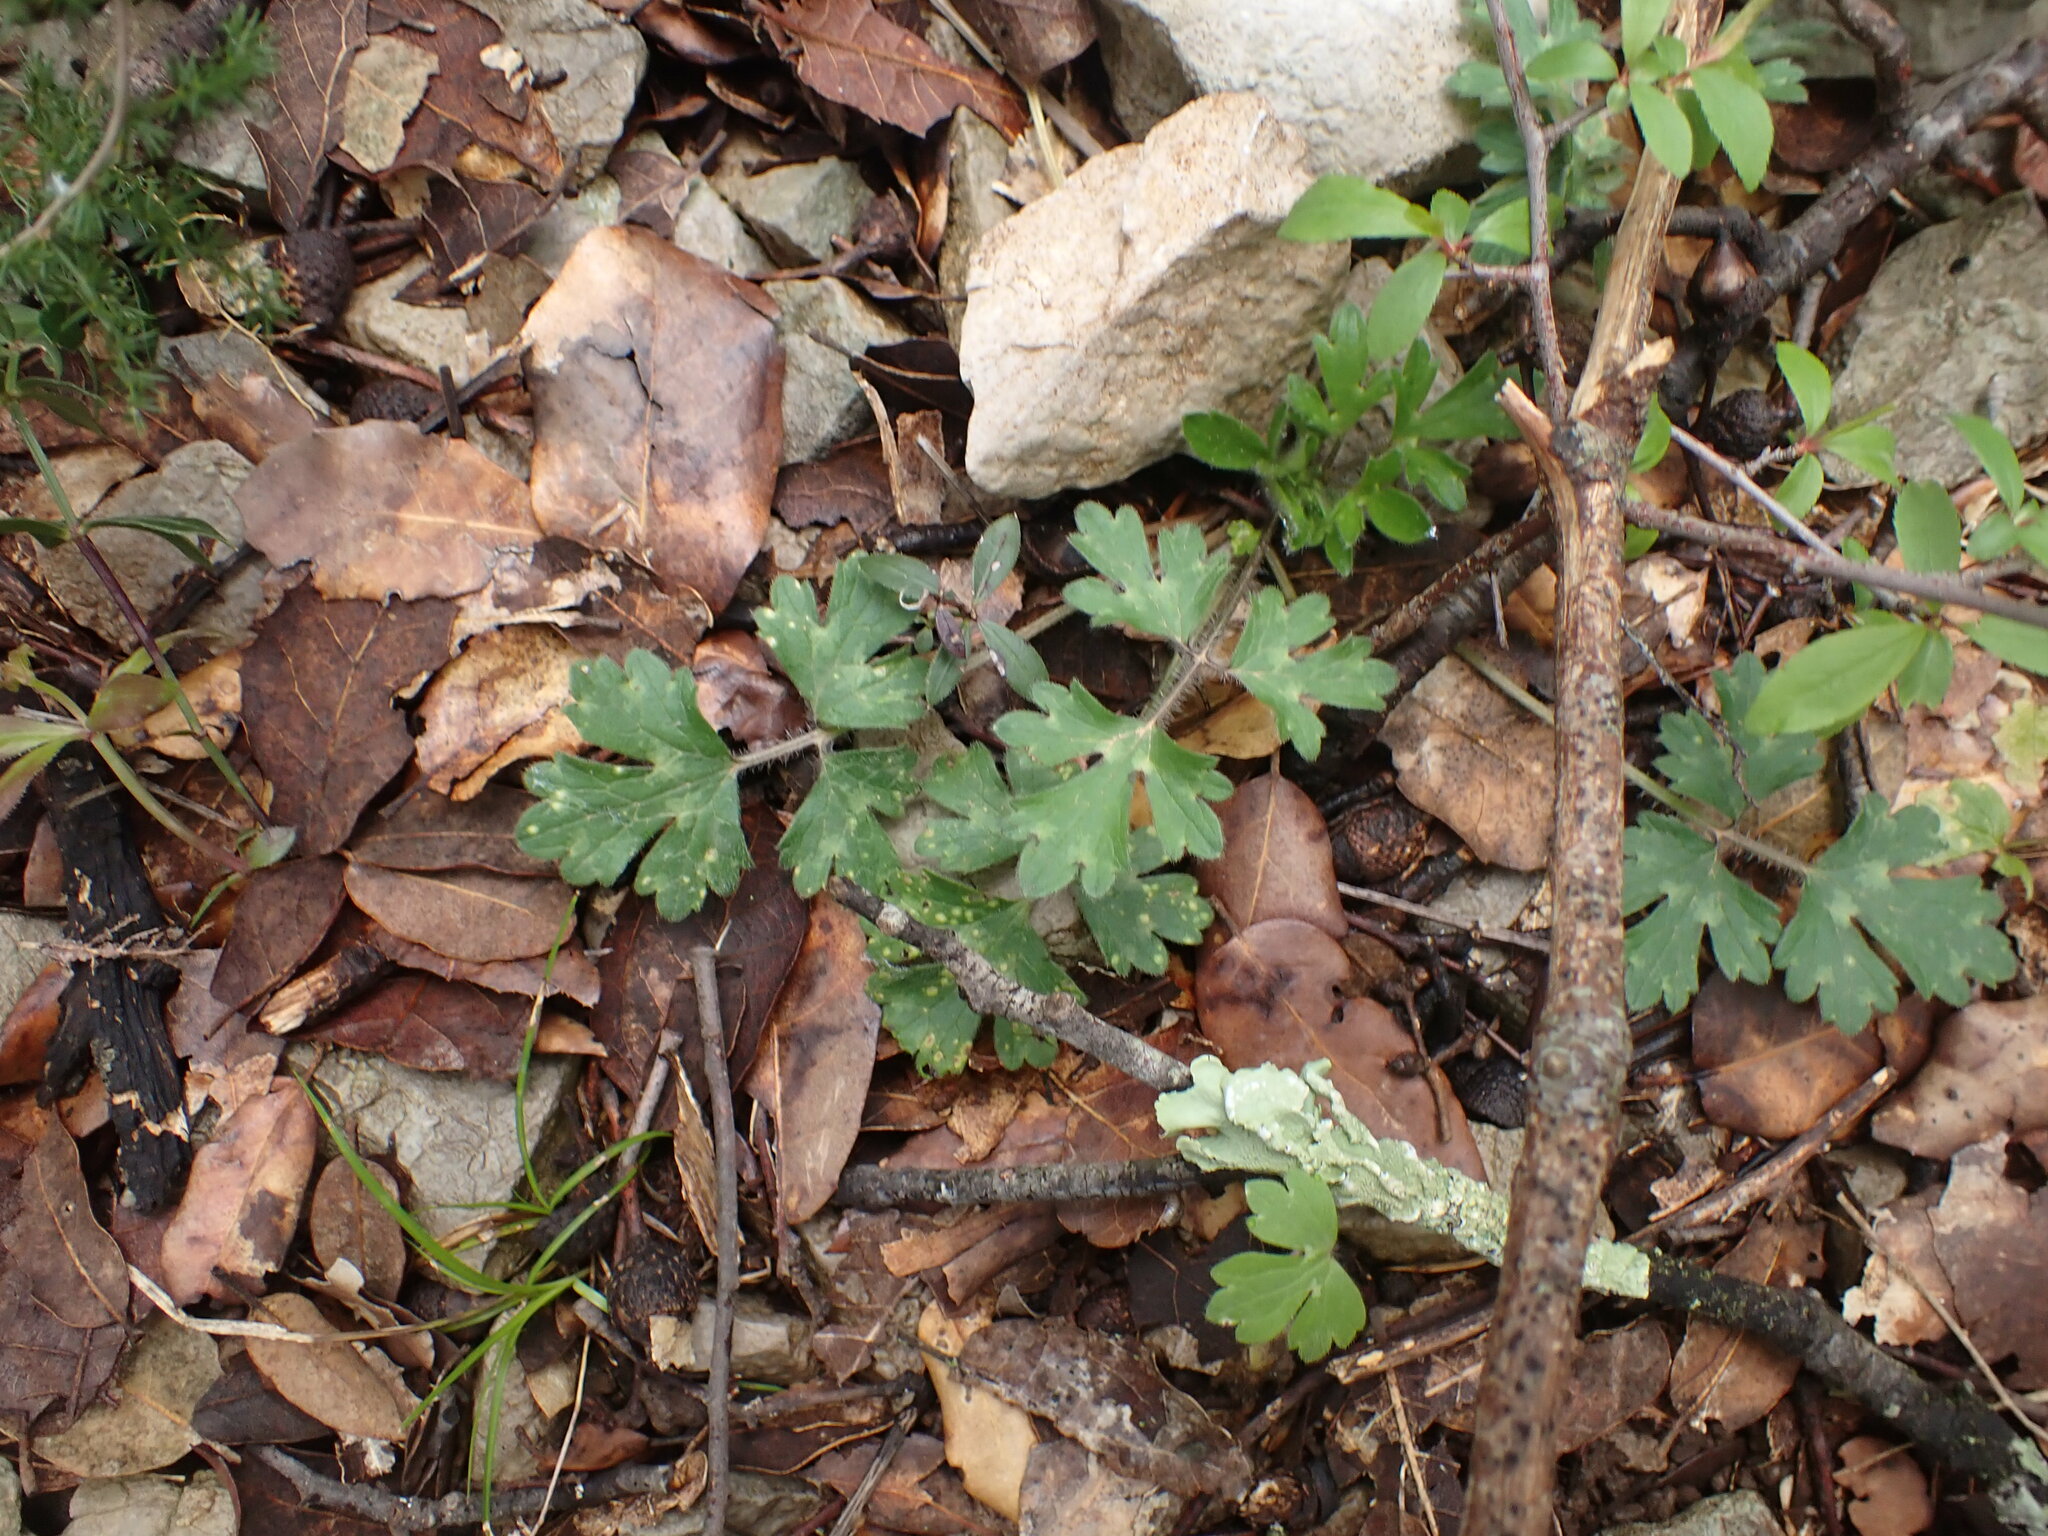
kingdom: Plantae
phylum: Tracheophyta
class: Magnoliopsida
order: Ranunculales
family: Ranunculaceae
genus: Ranunculus
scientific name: Ranunculus bulbosus
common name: Bulbous buttercup
